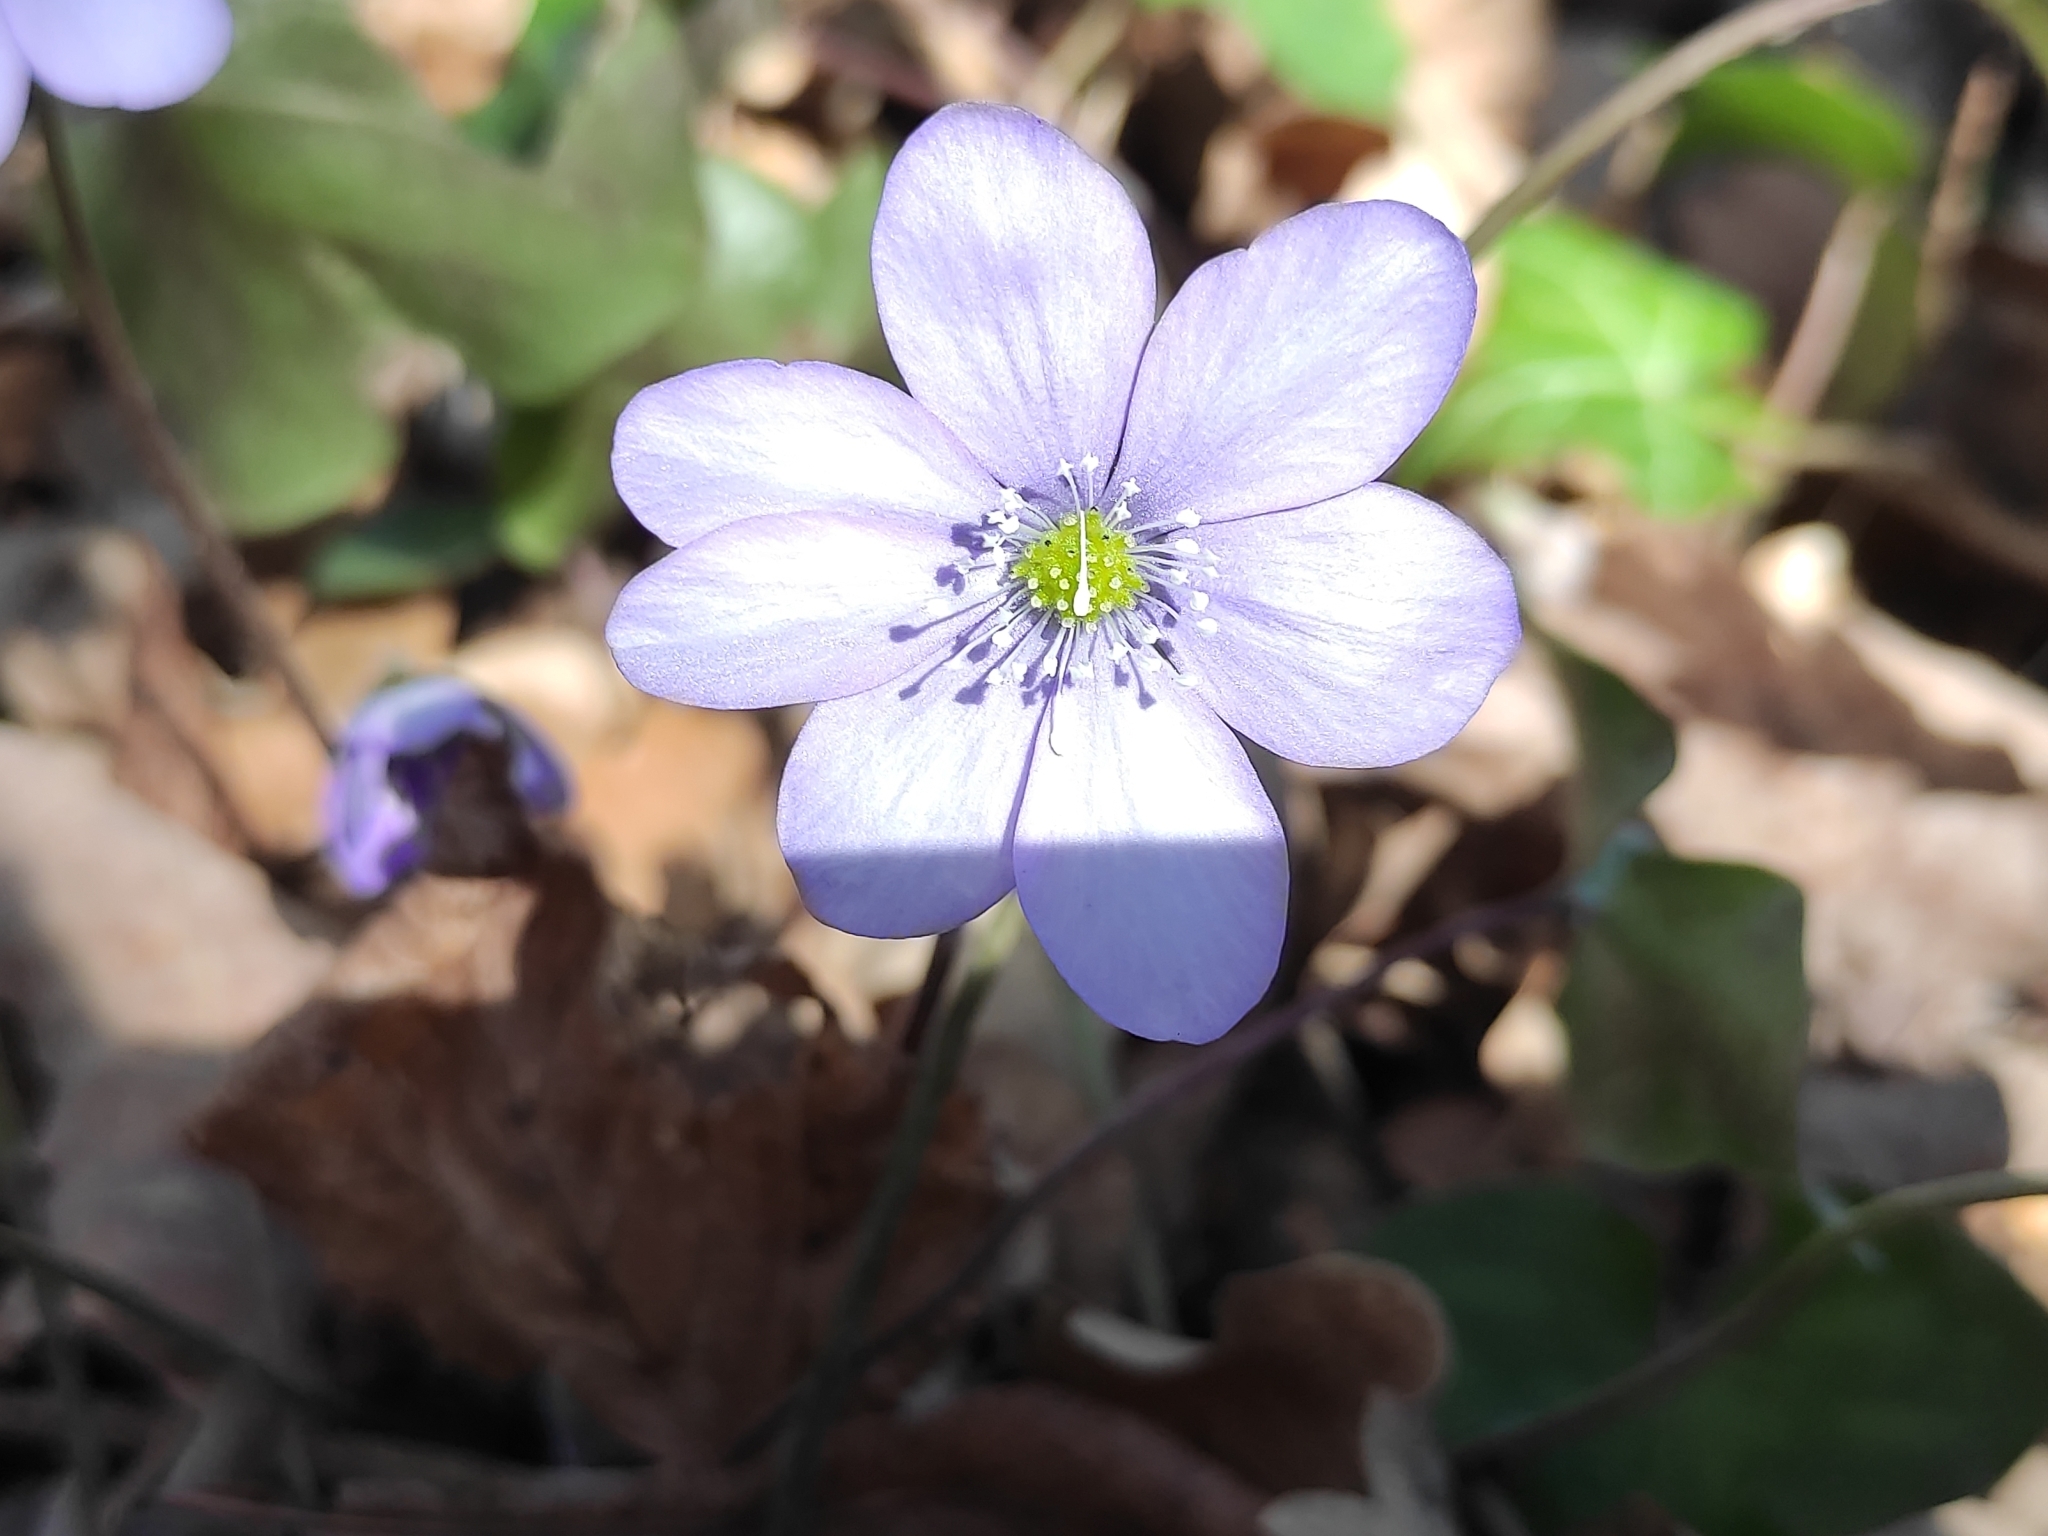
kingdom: Plantae
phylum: Tracheophyta
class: Magnoliopsida
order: Ranunculales
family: Ranunculaceae
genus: Hepatica
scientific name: Hepatica nobilis
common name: Liverleaf
